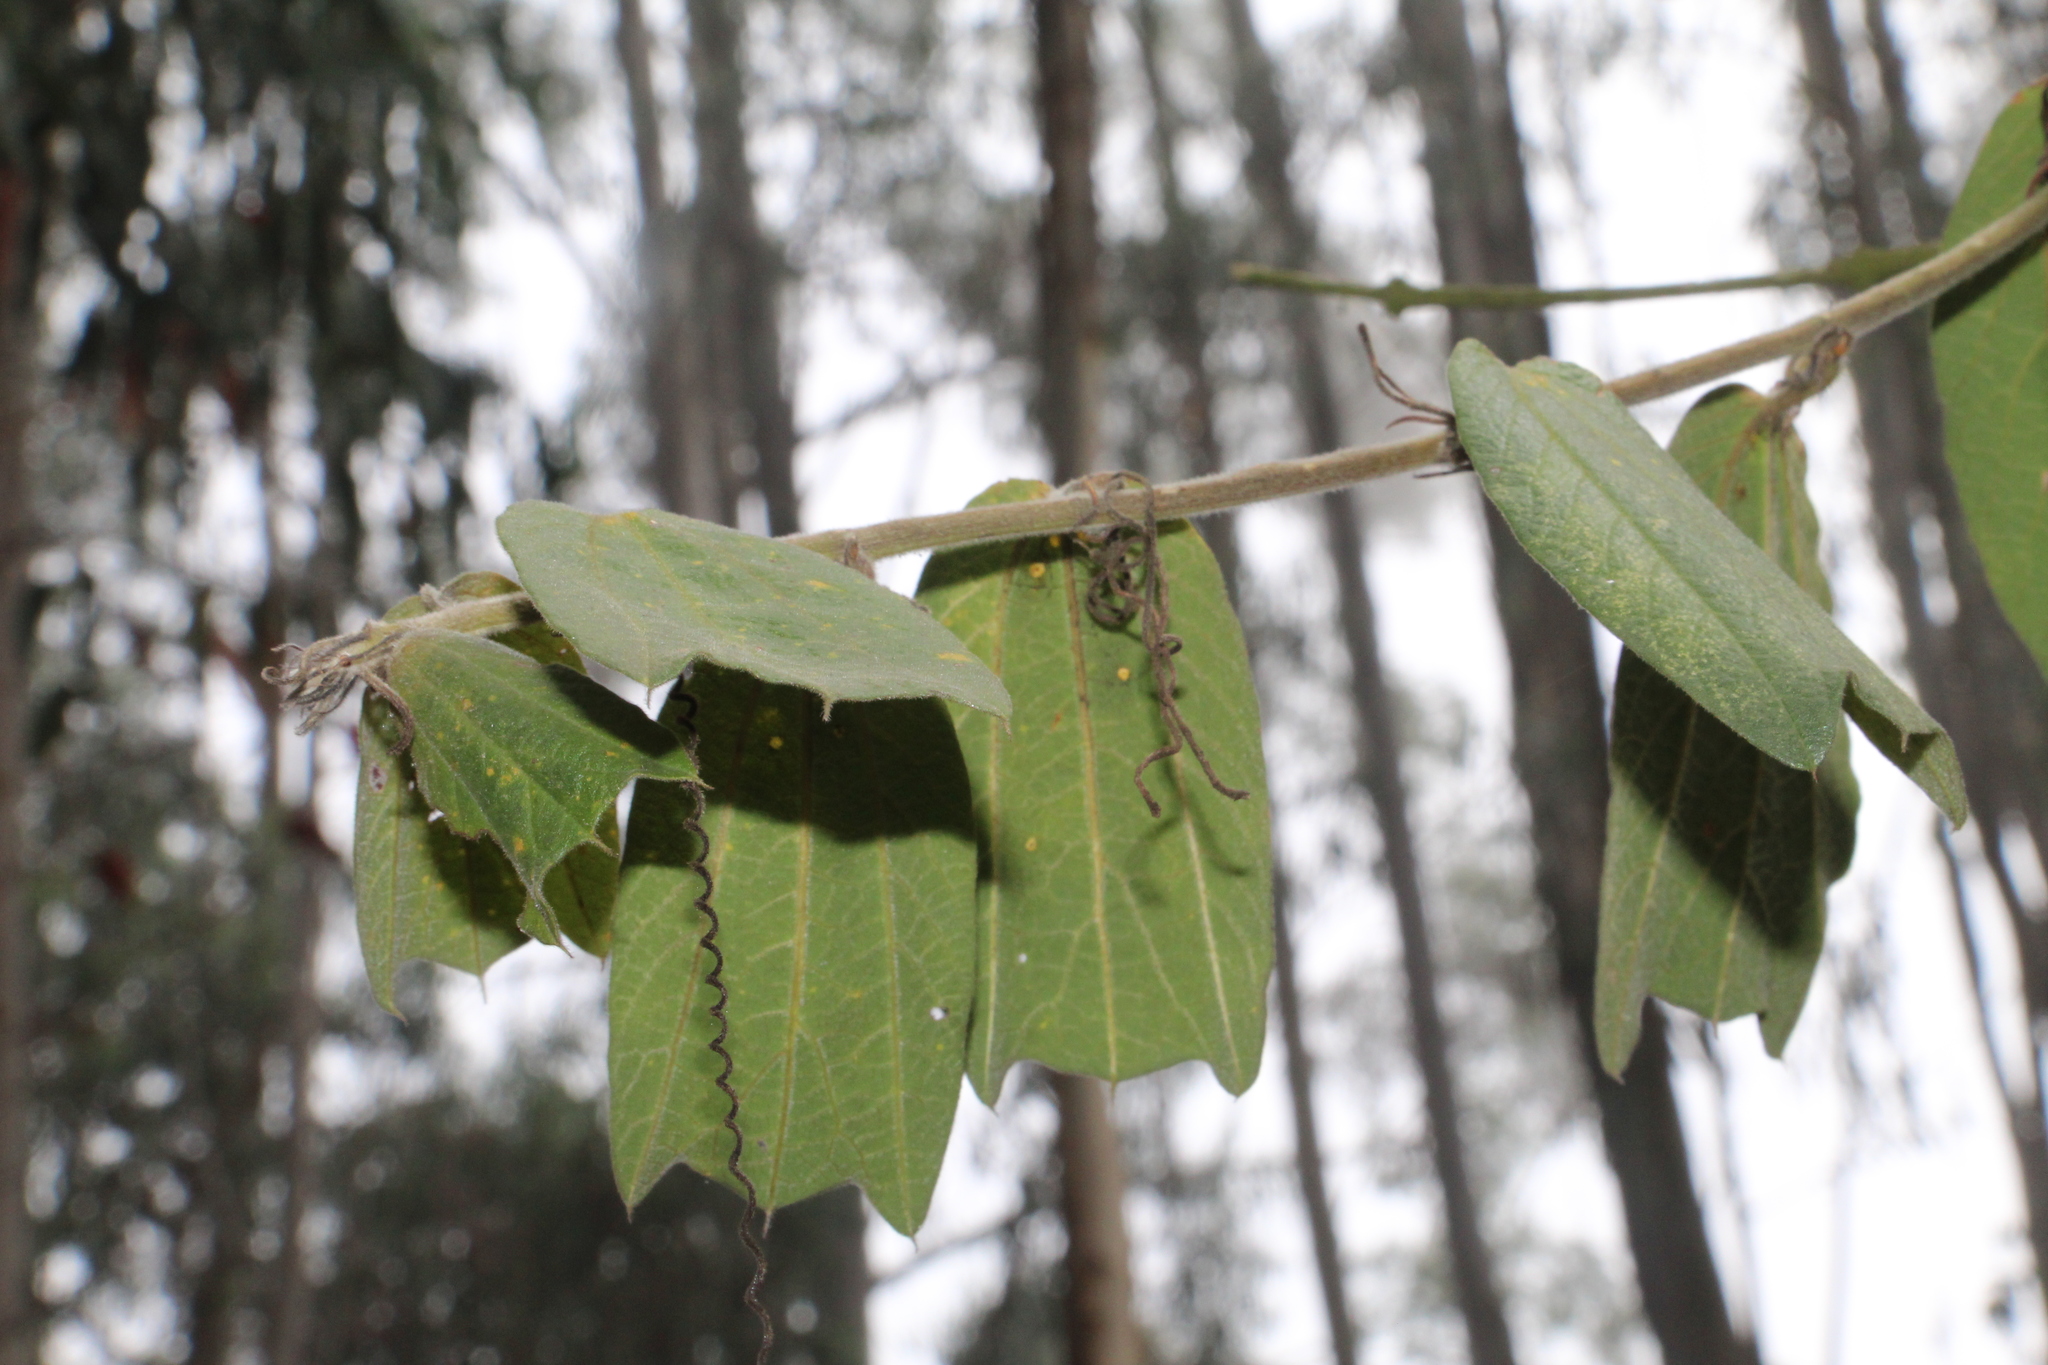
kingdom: Plantae
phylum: Tracheophyta
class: Magnoliopsida
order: Malpighiales
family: Passifloraceae
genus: Passiflora
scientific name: Passiflora bogotensis
